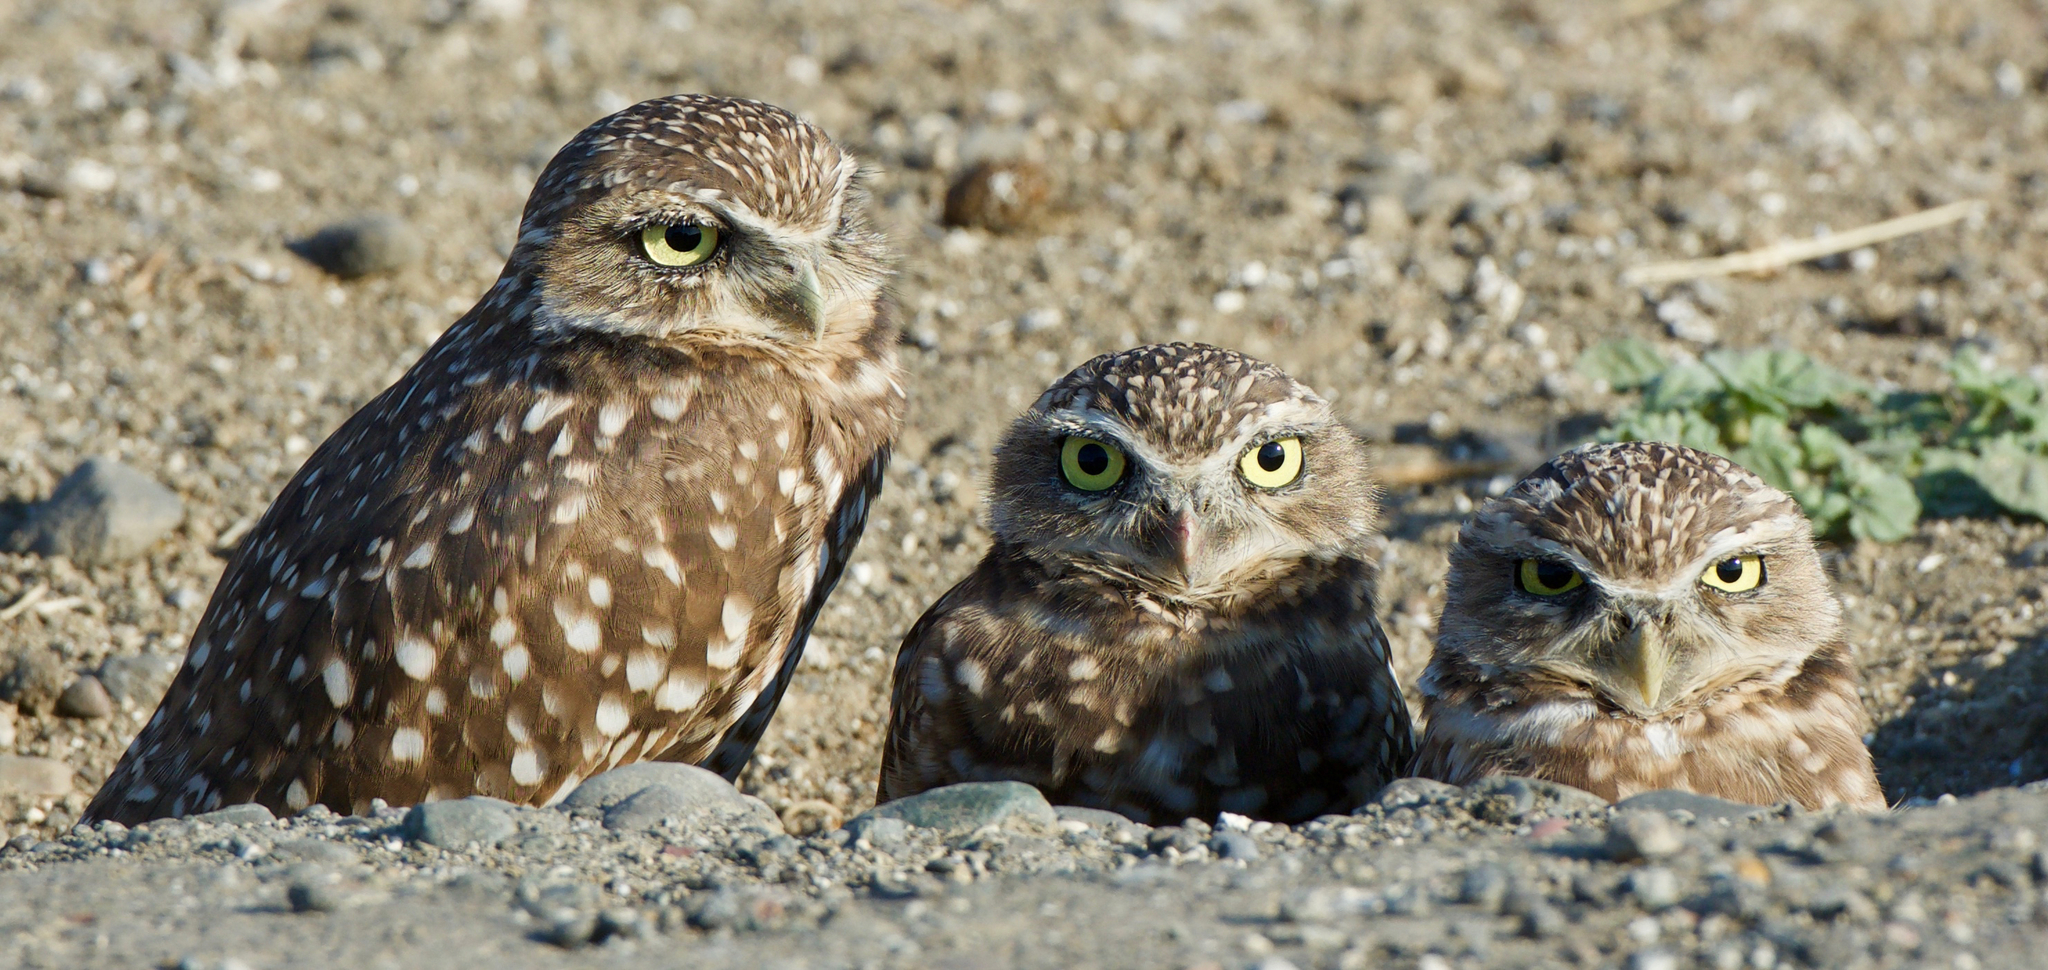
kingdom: Animalia
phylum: Chordata
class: Aves
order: Strigiformes
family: Strigidae
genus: Athene
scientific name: Athene cunicularia
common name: Burrowing owl
